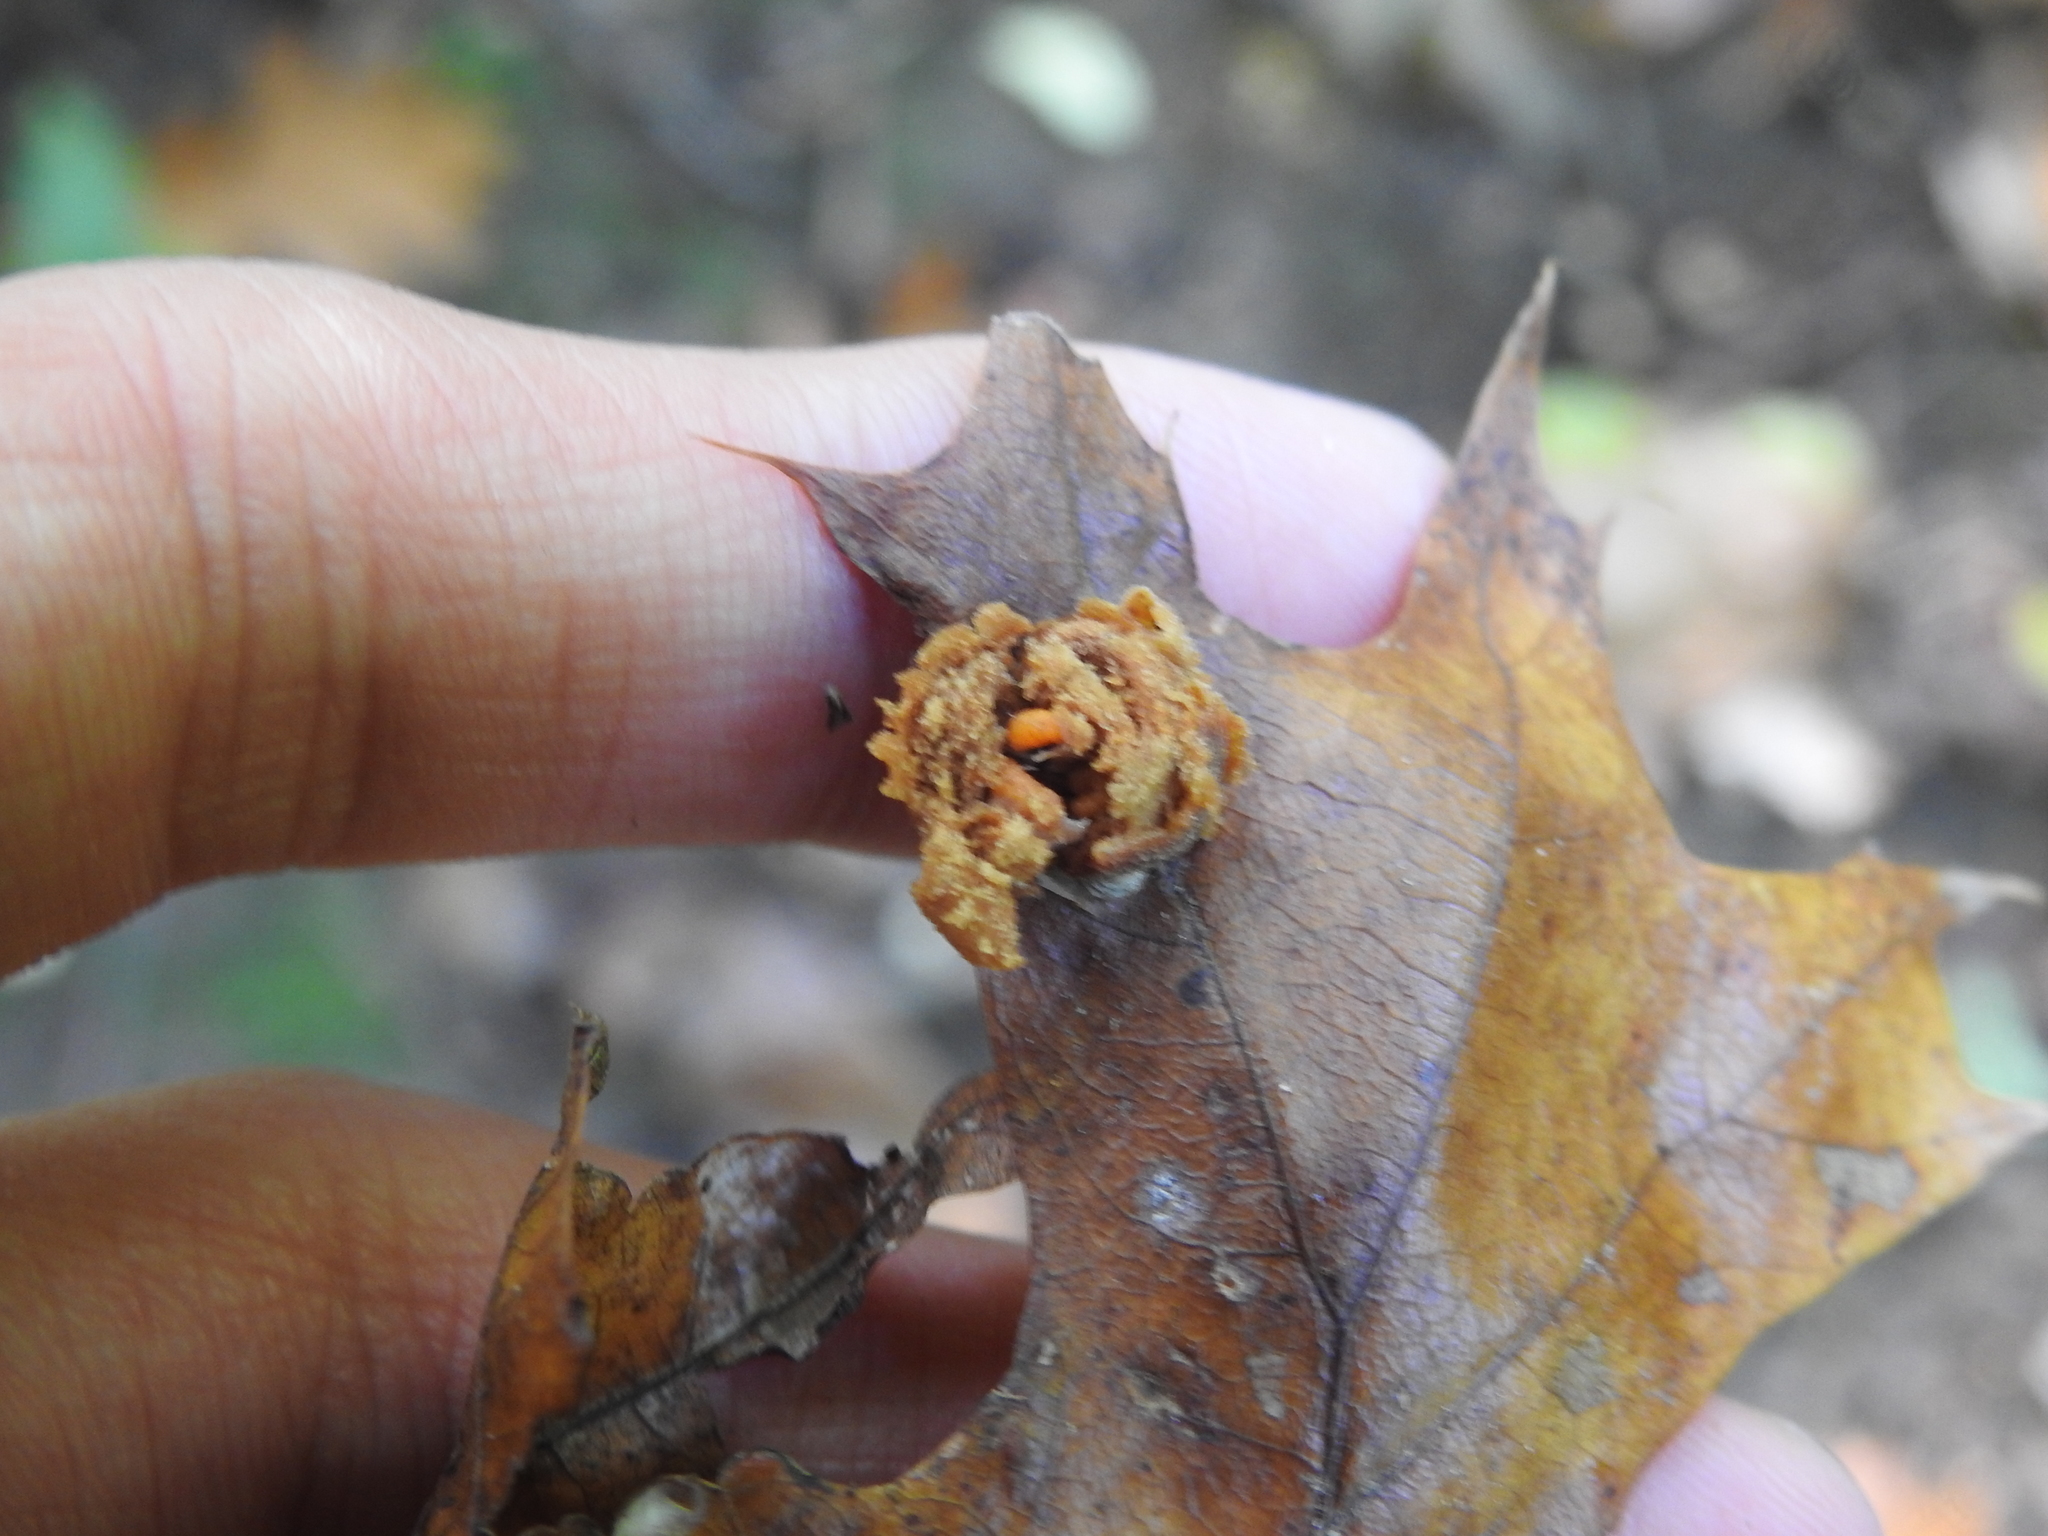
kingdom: Animalia
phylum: Arthropoda
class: Insecta
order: Diptera
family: Cecidomyiidae
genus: Polystepha
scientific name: Polystepha pilulae
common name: Oak leaf gall midge
